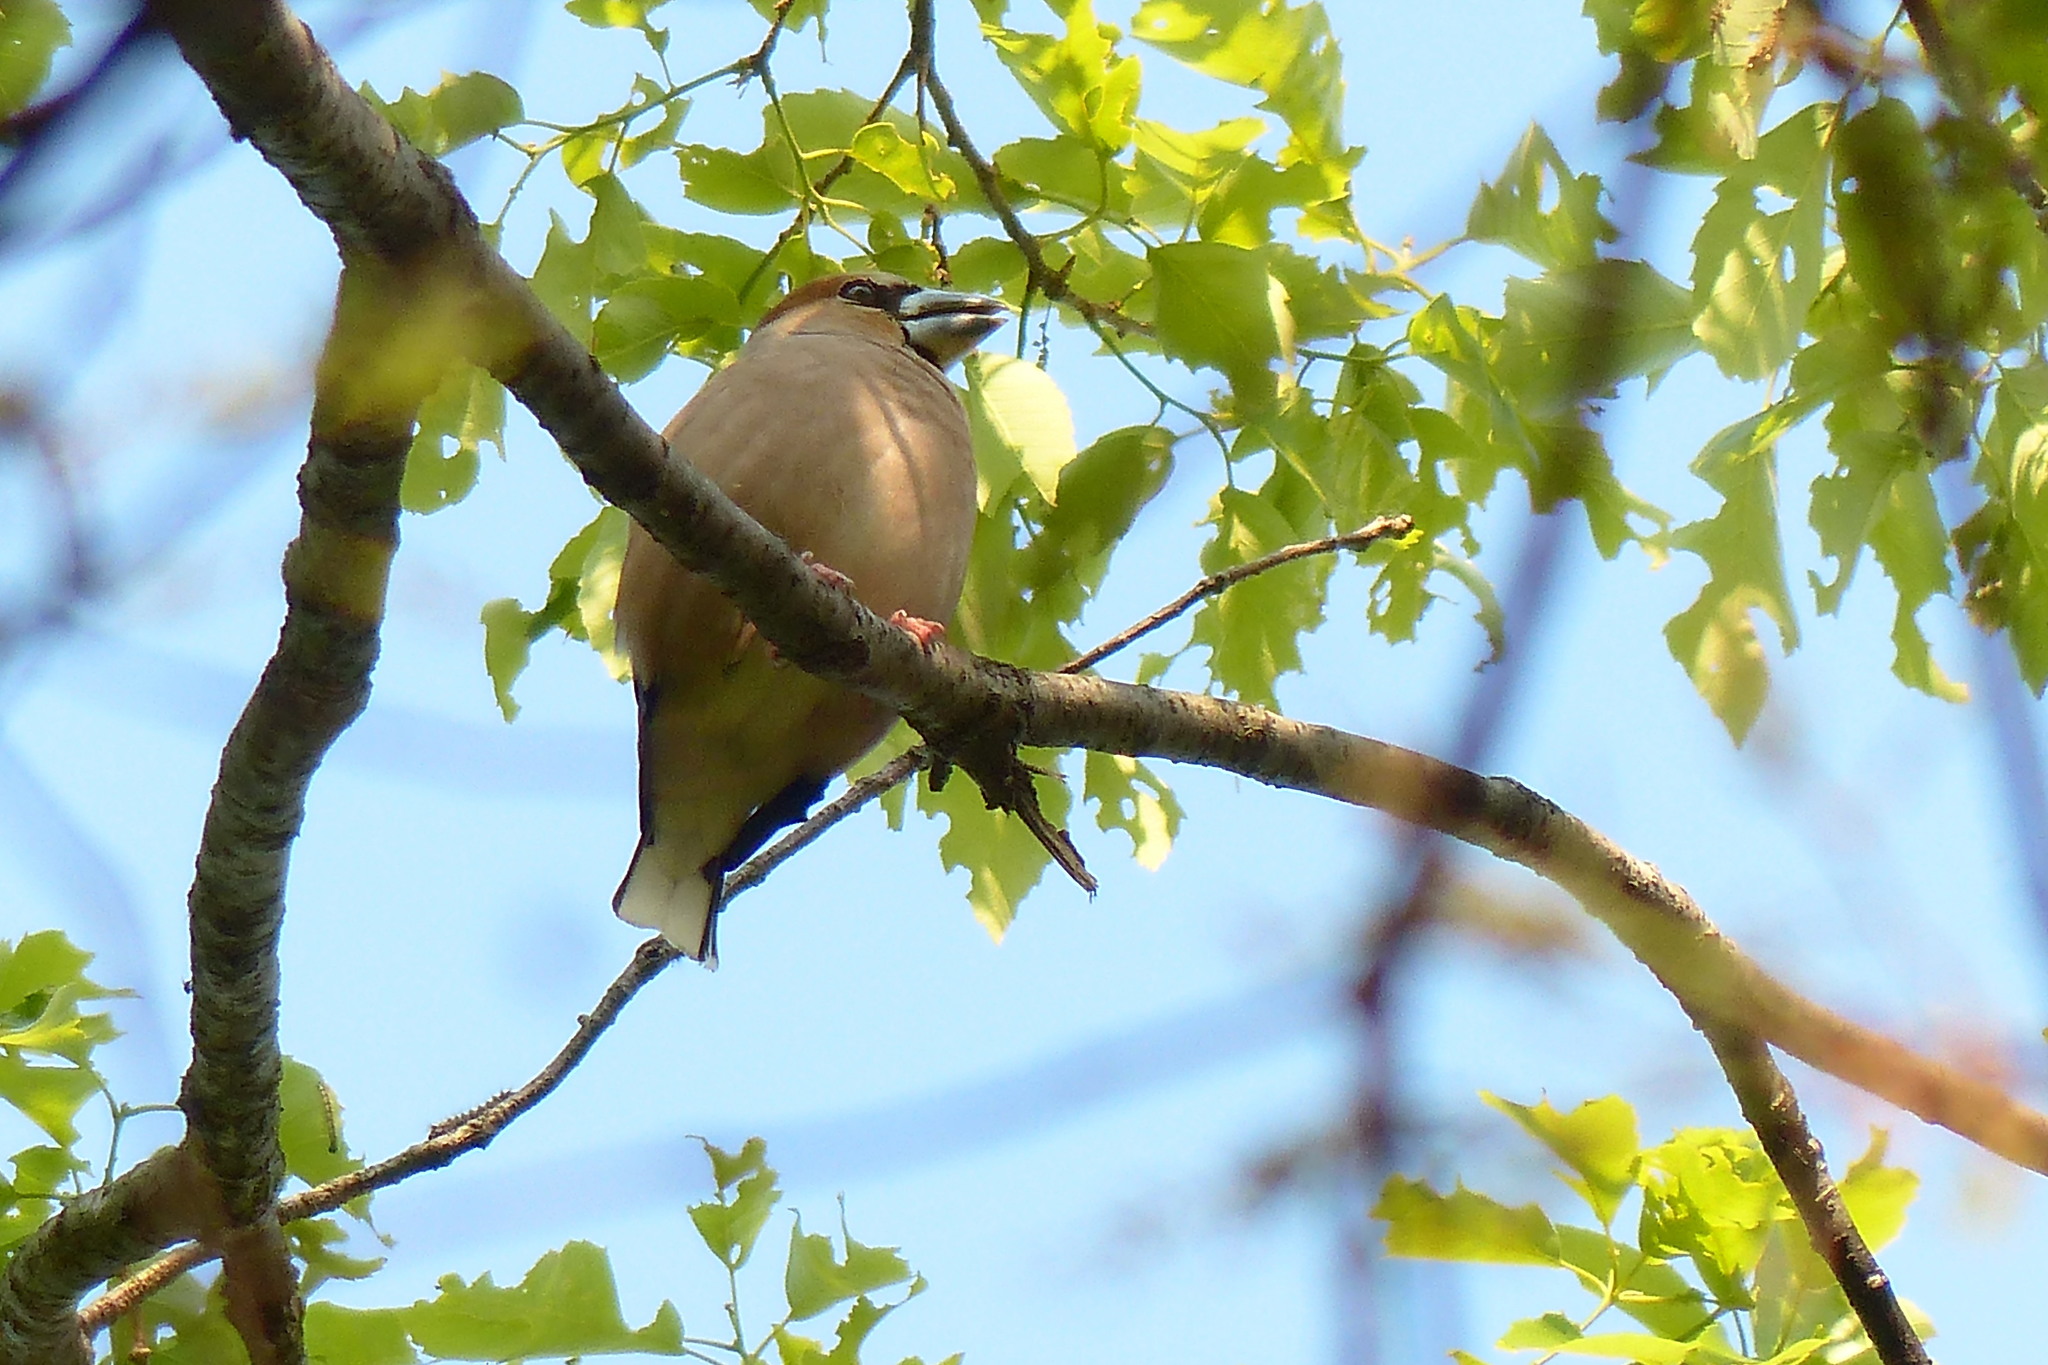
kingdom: Animalia
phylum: Chordata
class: Aves
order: Passeriformes
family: Fringillidae
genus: Coccothraustes
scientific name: Coccothraustes coccothraustes
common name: Hawfinch
